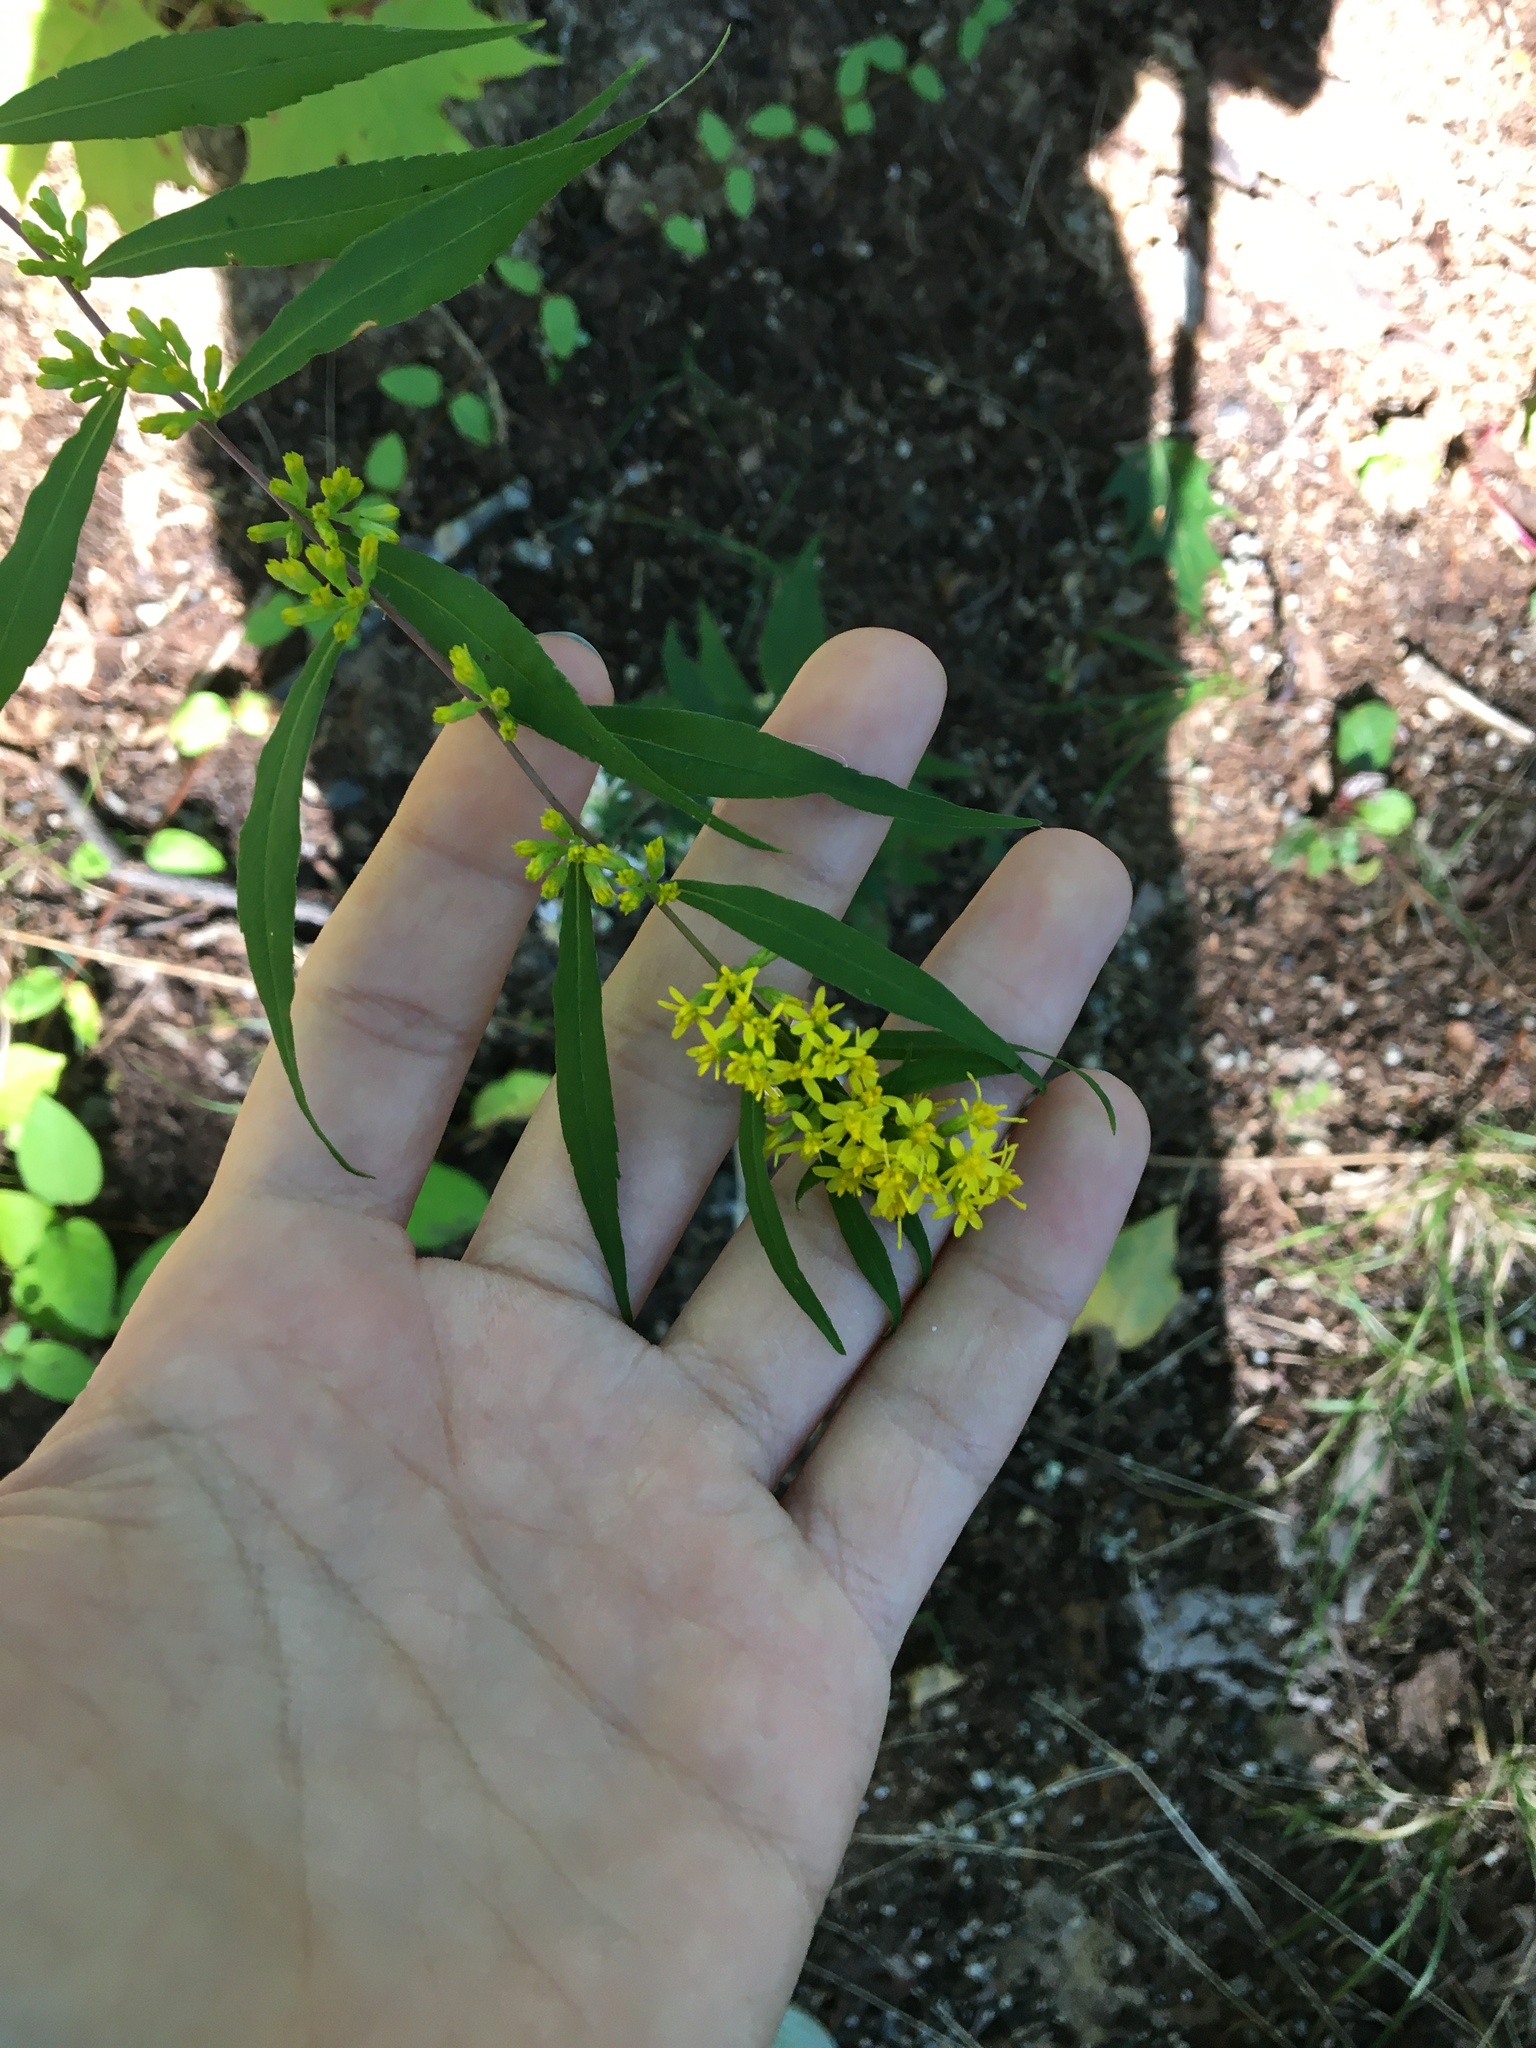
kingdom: Plantae
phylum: Tracheophyta
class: Magnoliopsida
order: Asterales
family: Asteraceae
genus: Solidago
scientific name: Solidago caesia
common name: Woodland goldenrod
